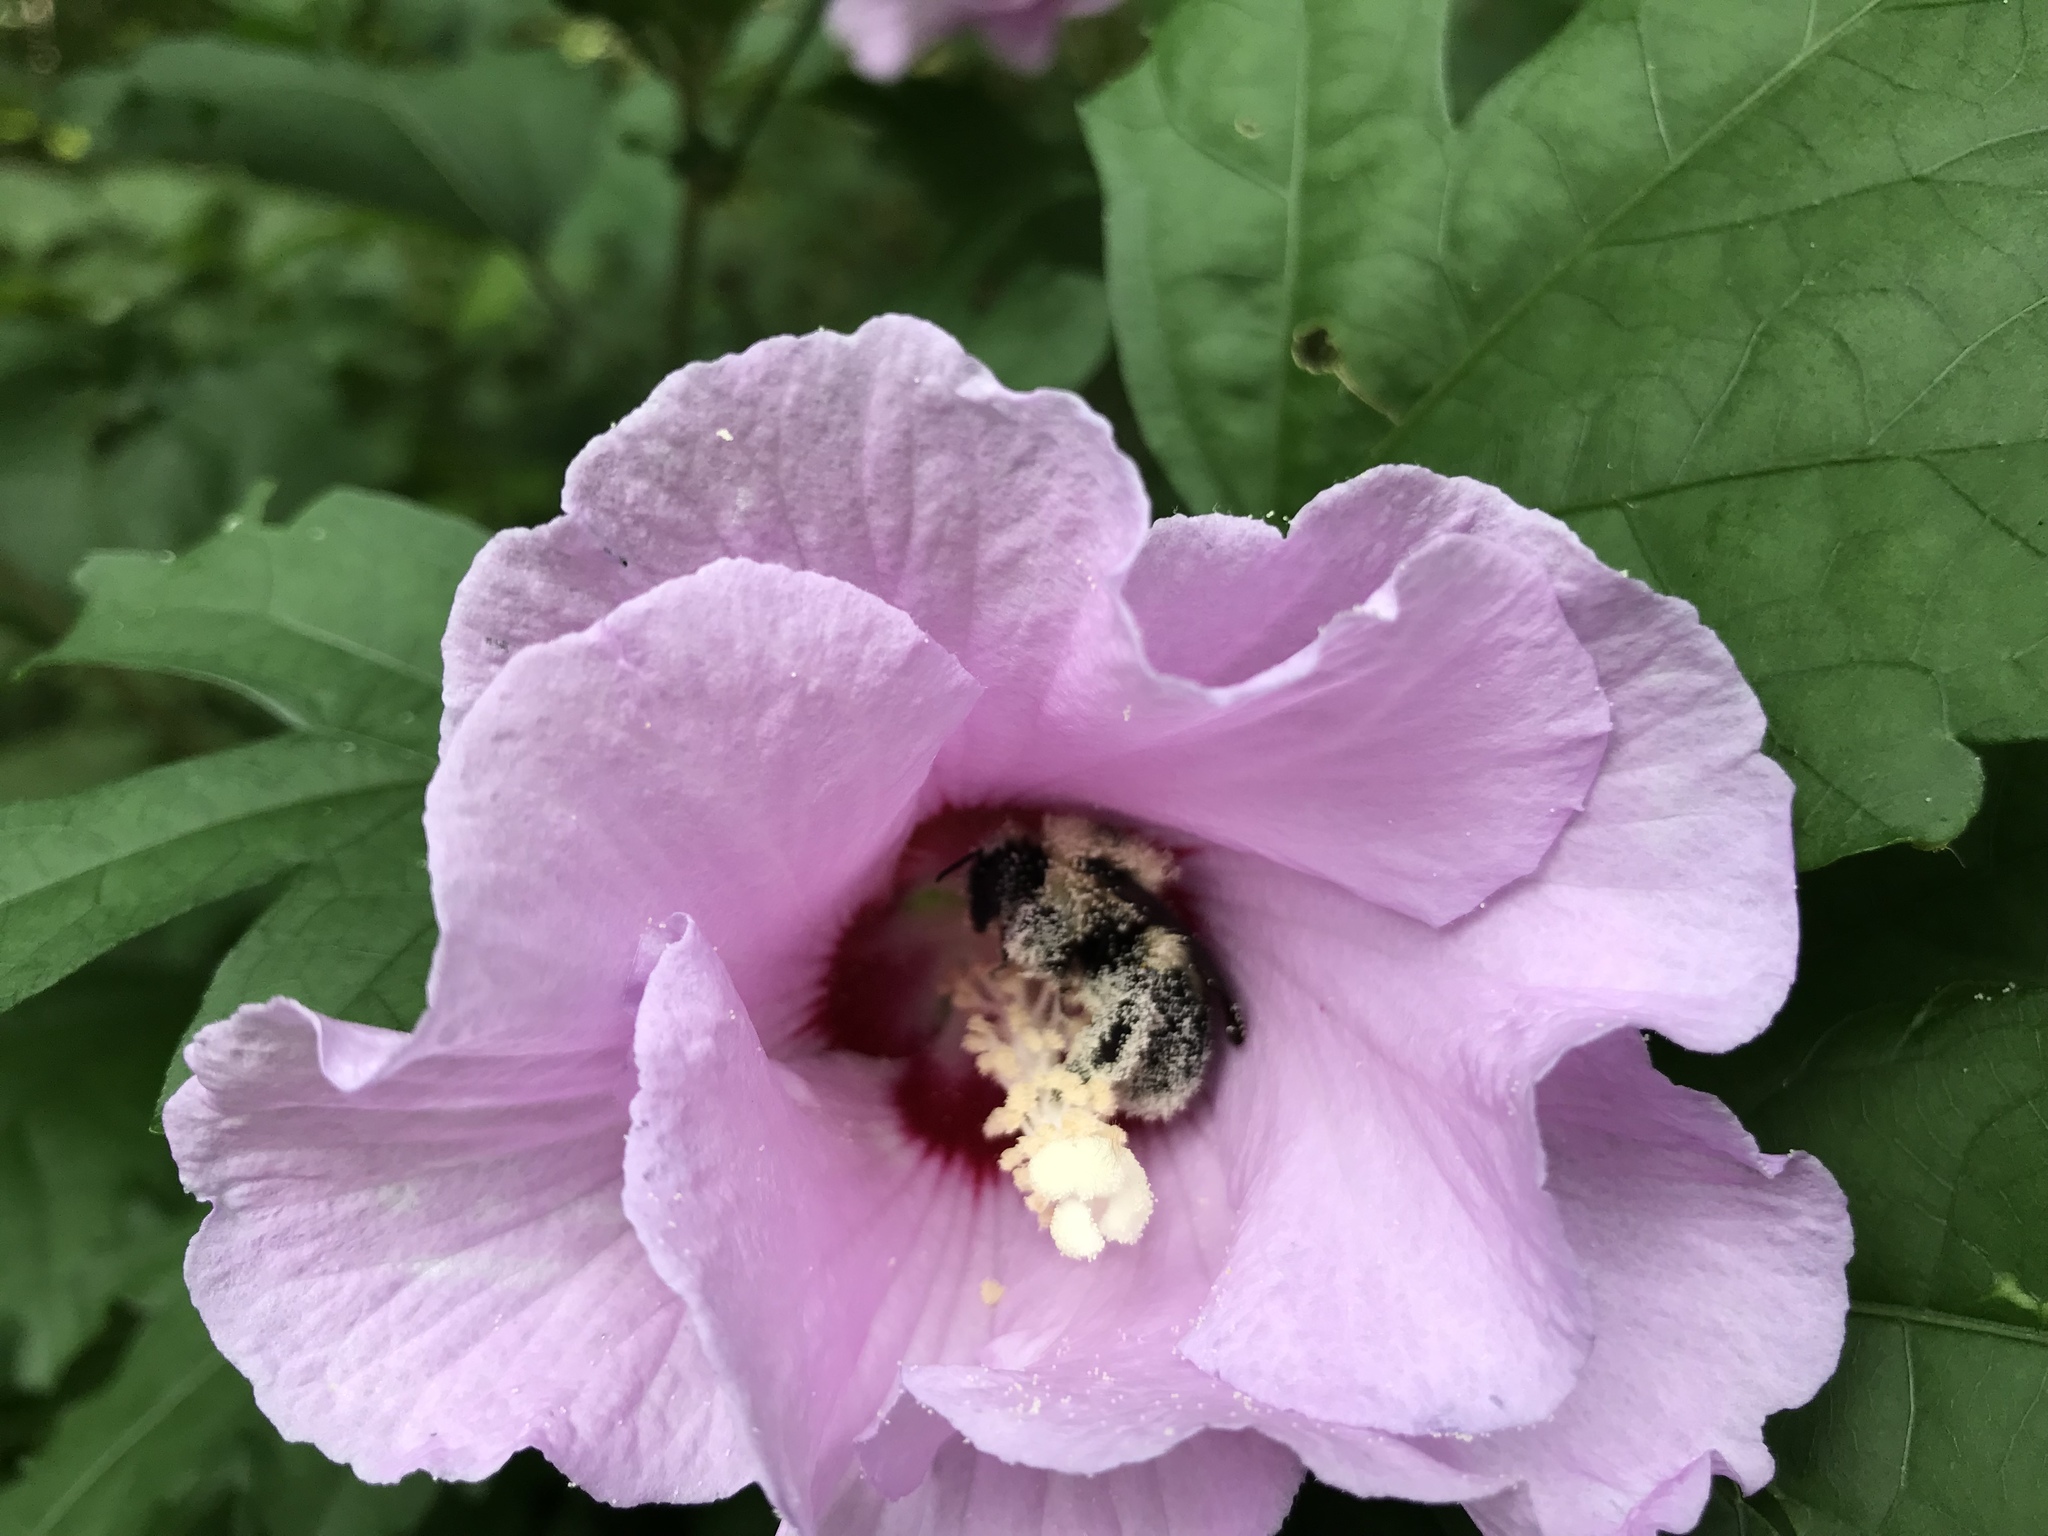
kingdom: Animalia
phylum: Arthropoda
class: Insecta
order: Hymenoptera
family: Apidae
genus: Bombus
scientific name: Bombus
